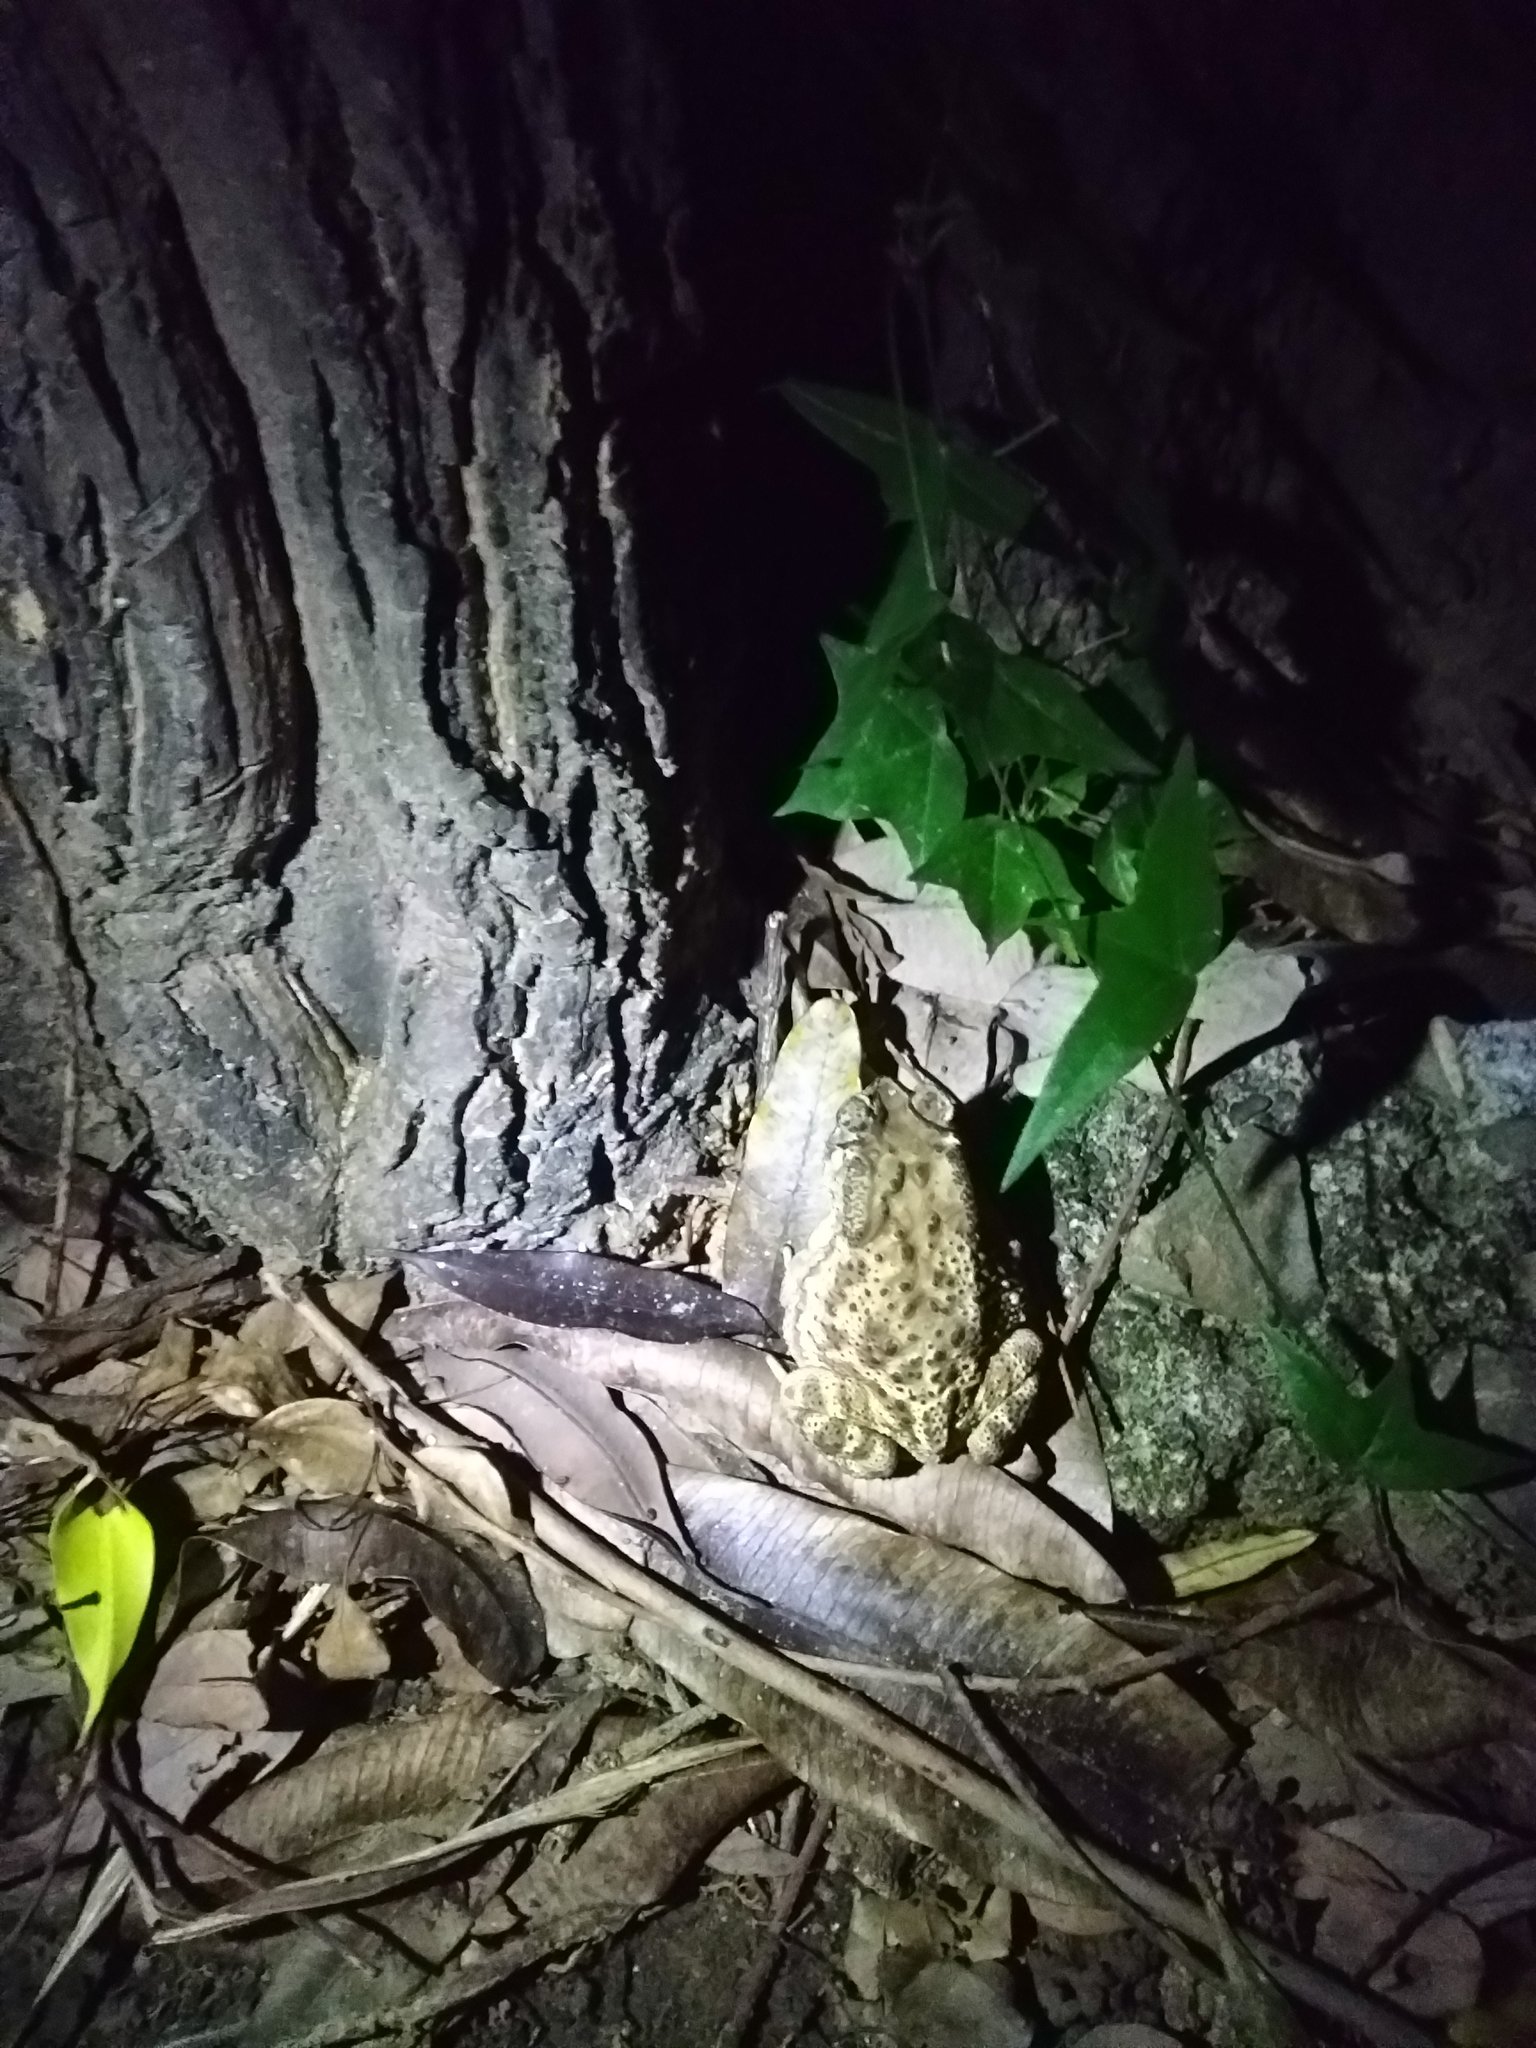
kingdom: Animalia
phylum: Chordata
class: Amphibia
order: Anura
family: Bufonidae
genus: Duttaphrynus
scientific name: Duttaphrynus melanostictus
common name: Common sunda toad
